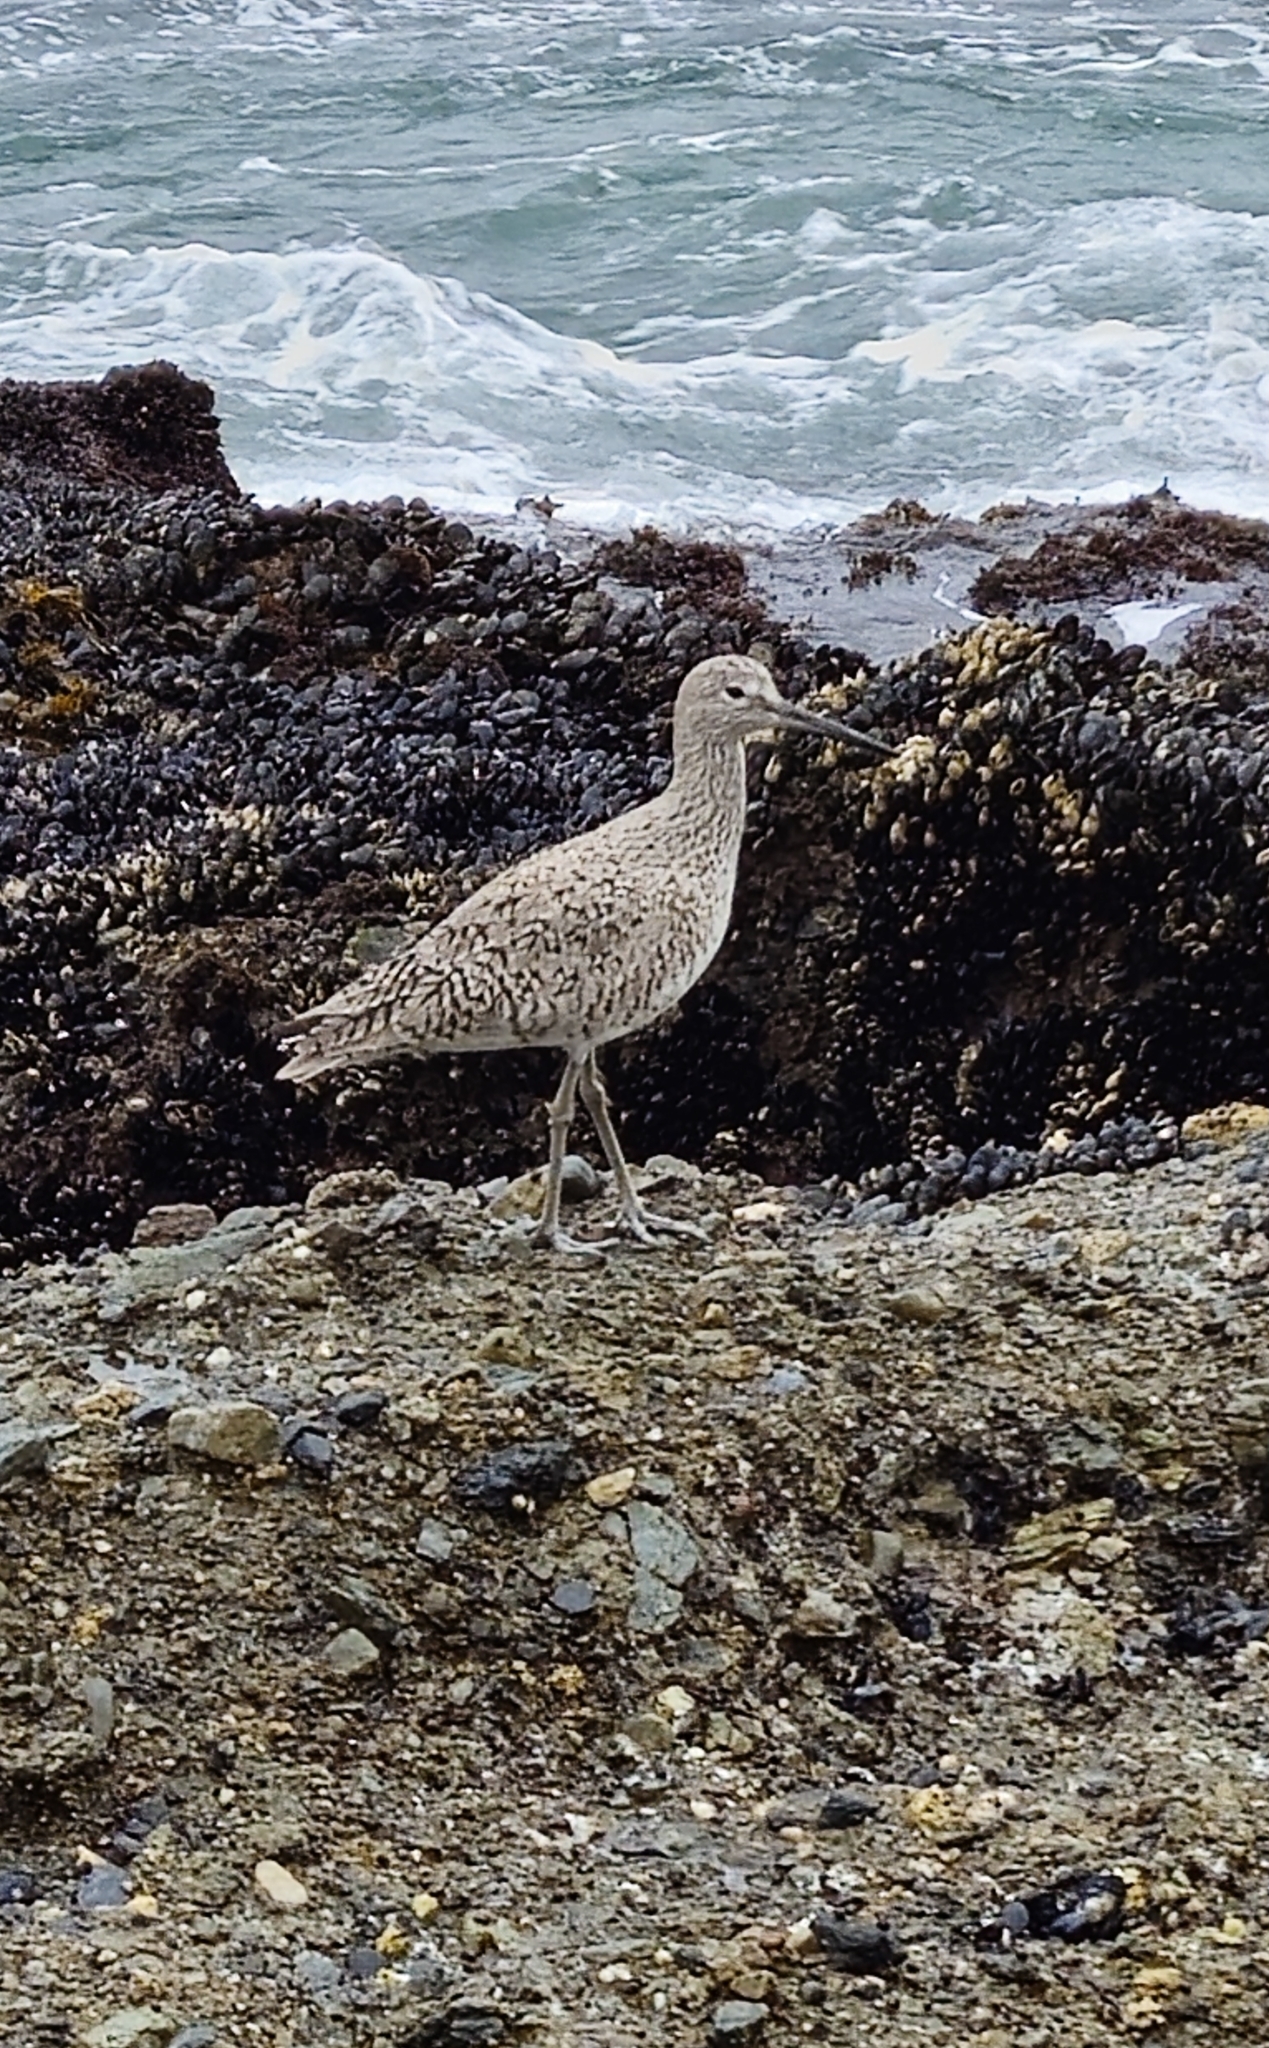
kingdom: Animalia
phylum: Chordata
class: Aves
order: Charadriiformes
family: Scolopacidae
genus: Tringa
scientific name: Tringa semipalmata
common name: Willet
